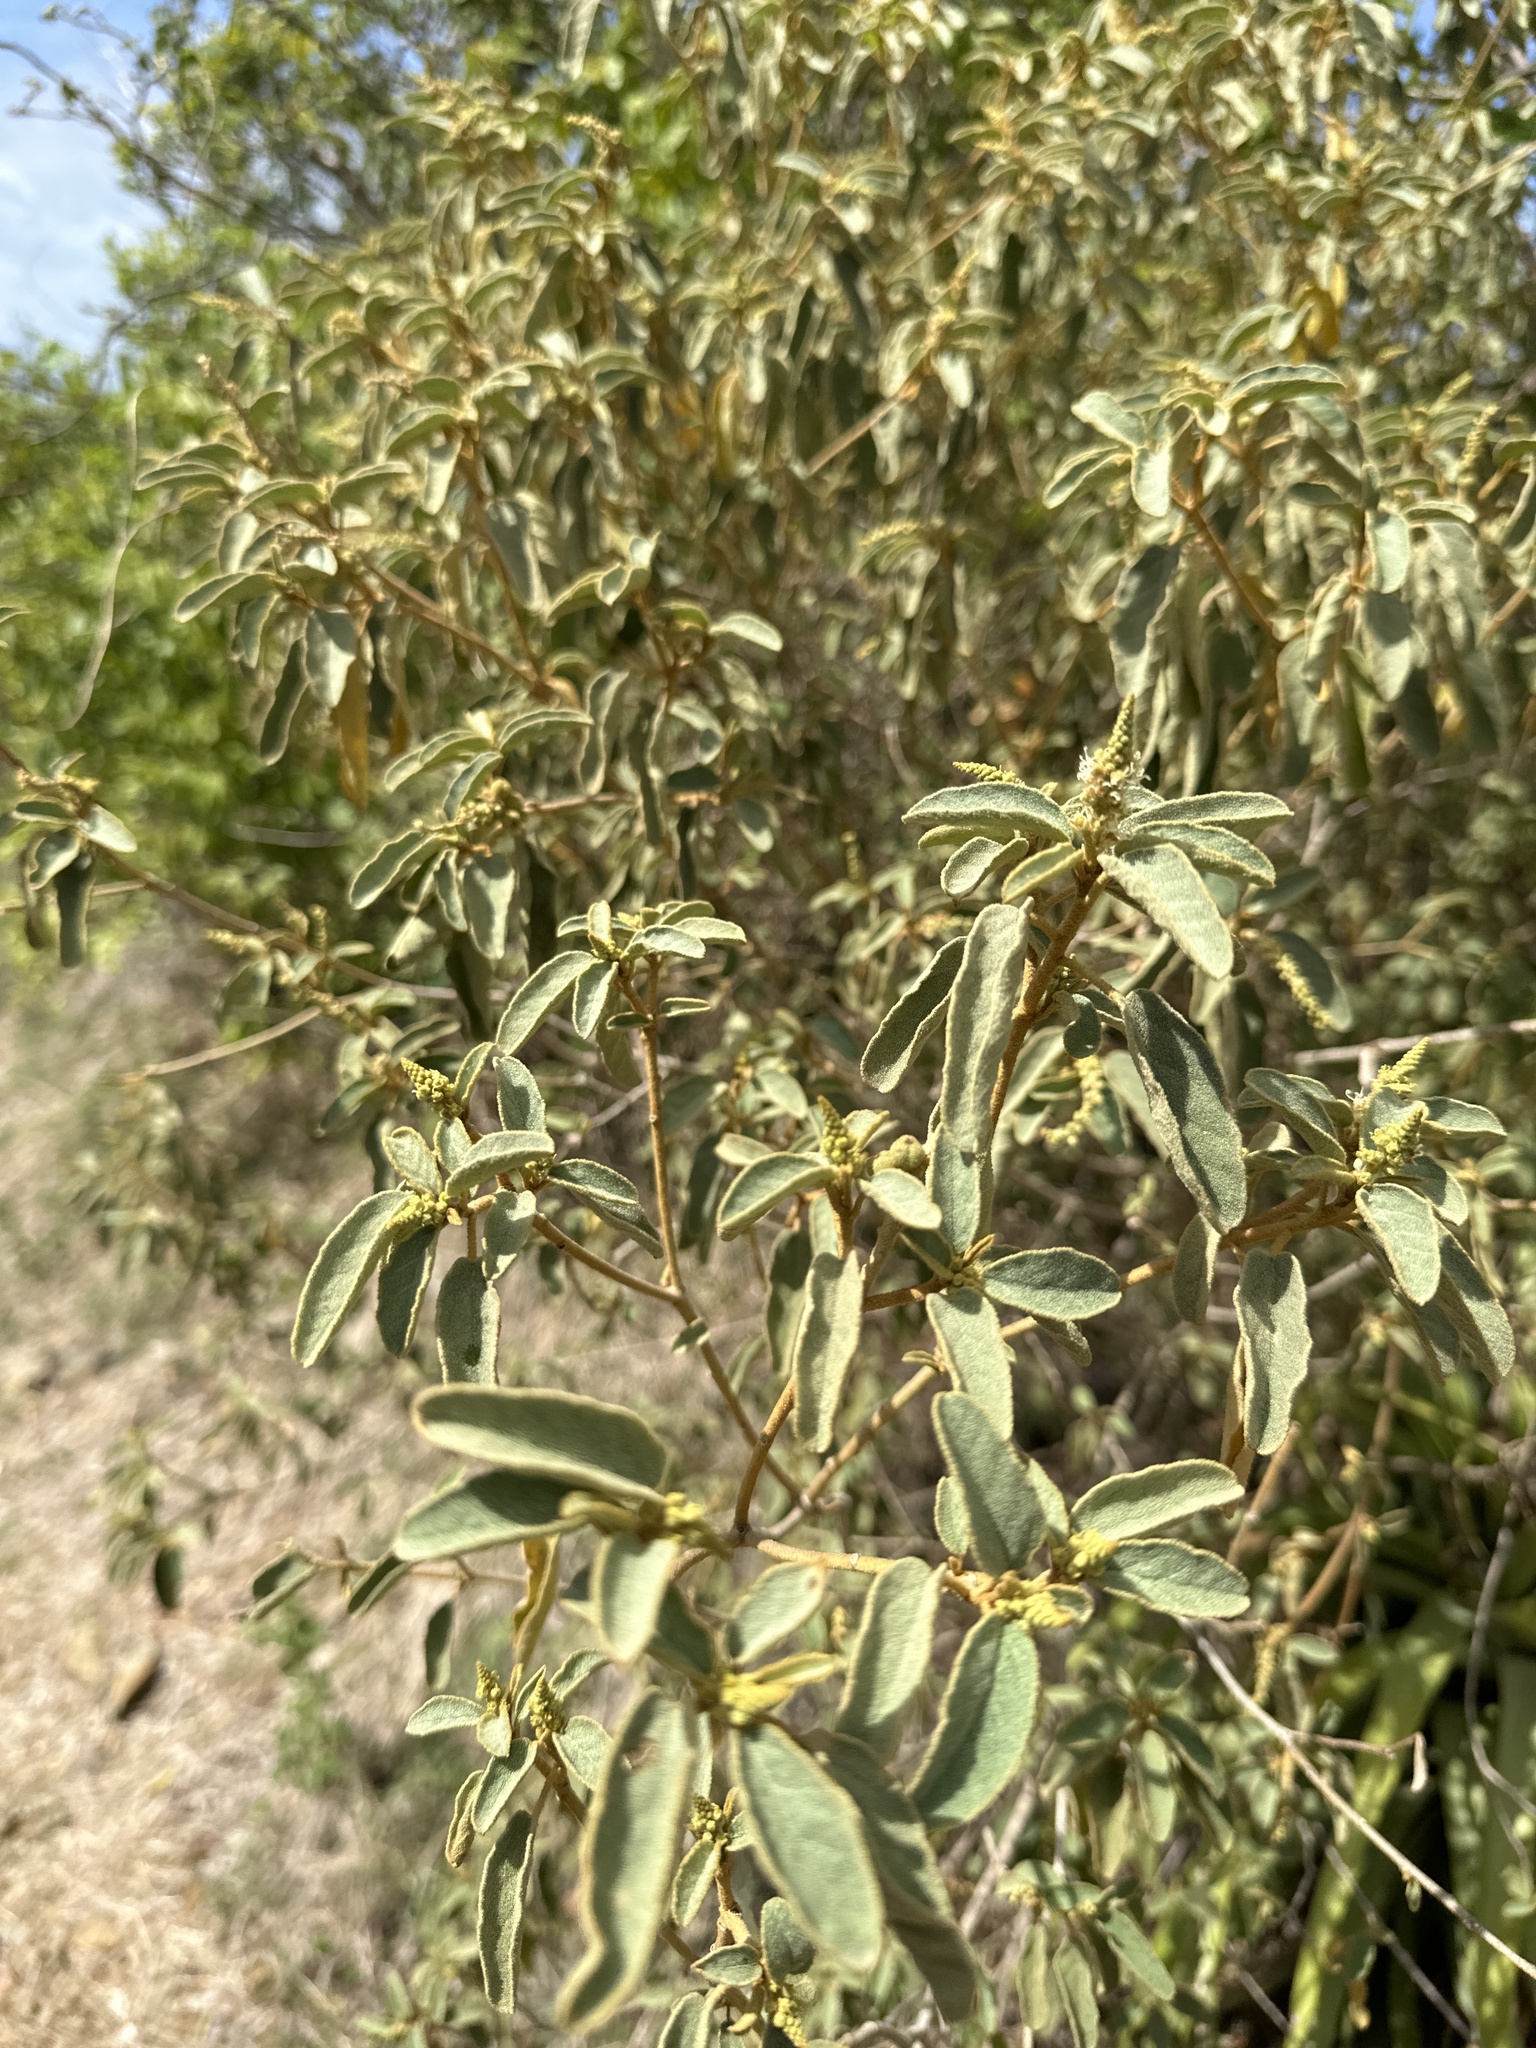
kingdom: Plantae
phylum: Tracheophyta
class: Magnoliopsida
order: Malpighiales
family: Euphorbiaceae
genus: Croton
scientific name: Croton flavens
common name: Yellow balsam
